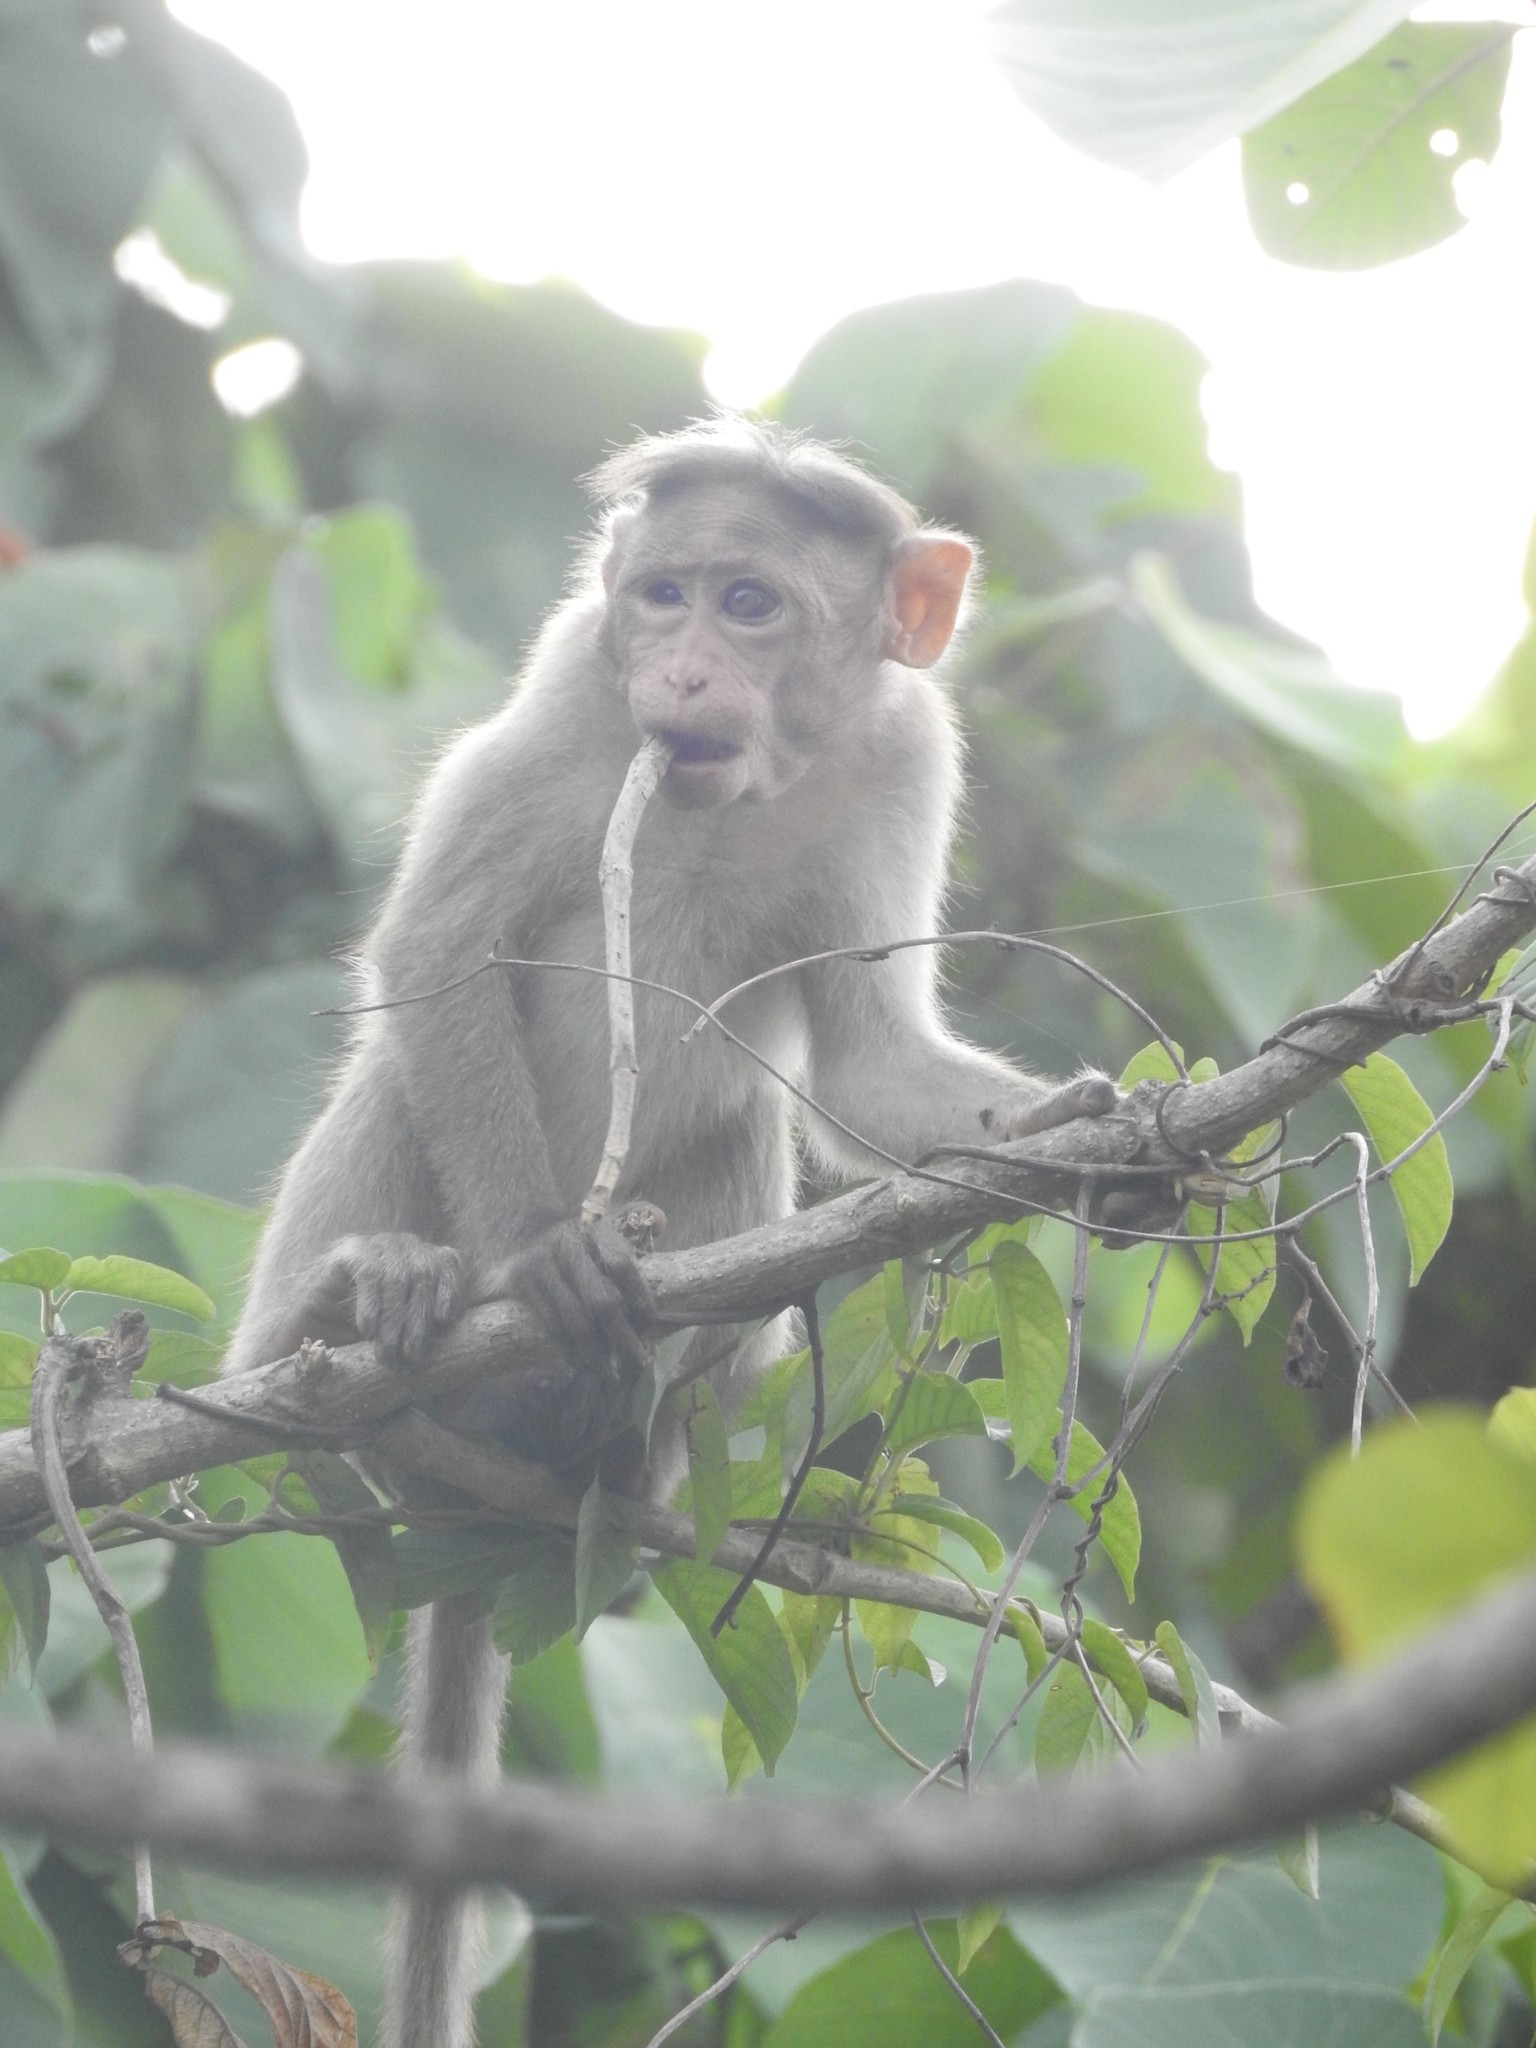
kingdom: Animalia
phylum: Chordata
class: Mammalia
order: Primates
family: Cercopithecidae
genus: Macaca
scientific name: Macaca radiata
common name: Bonnet macaque
